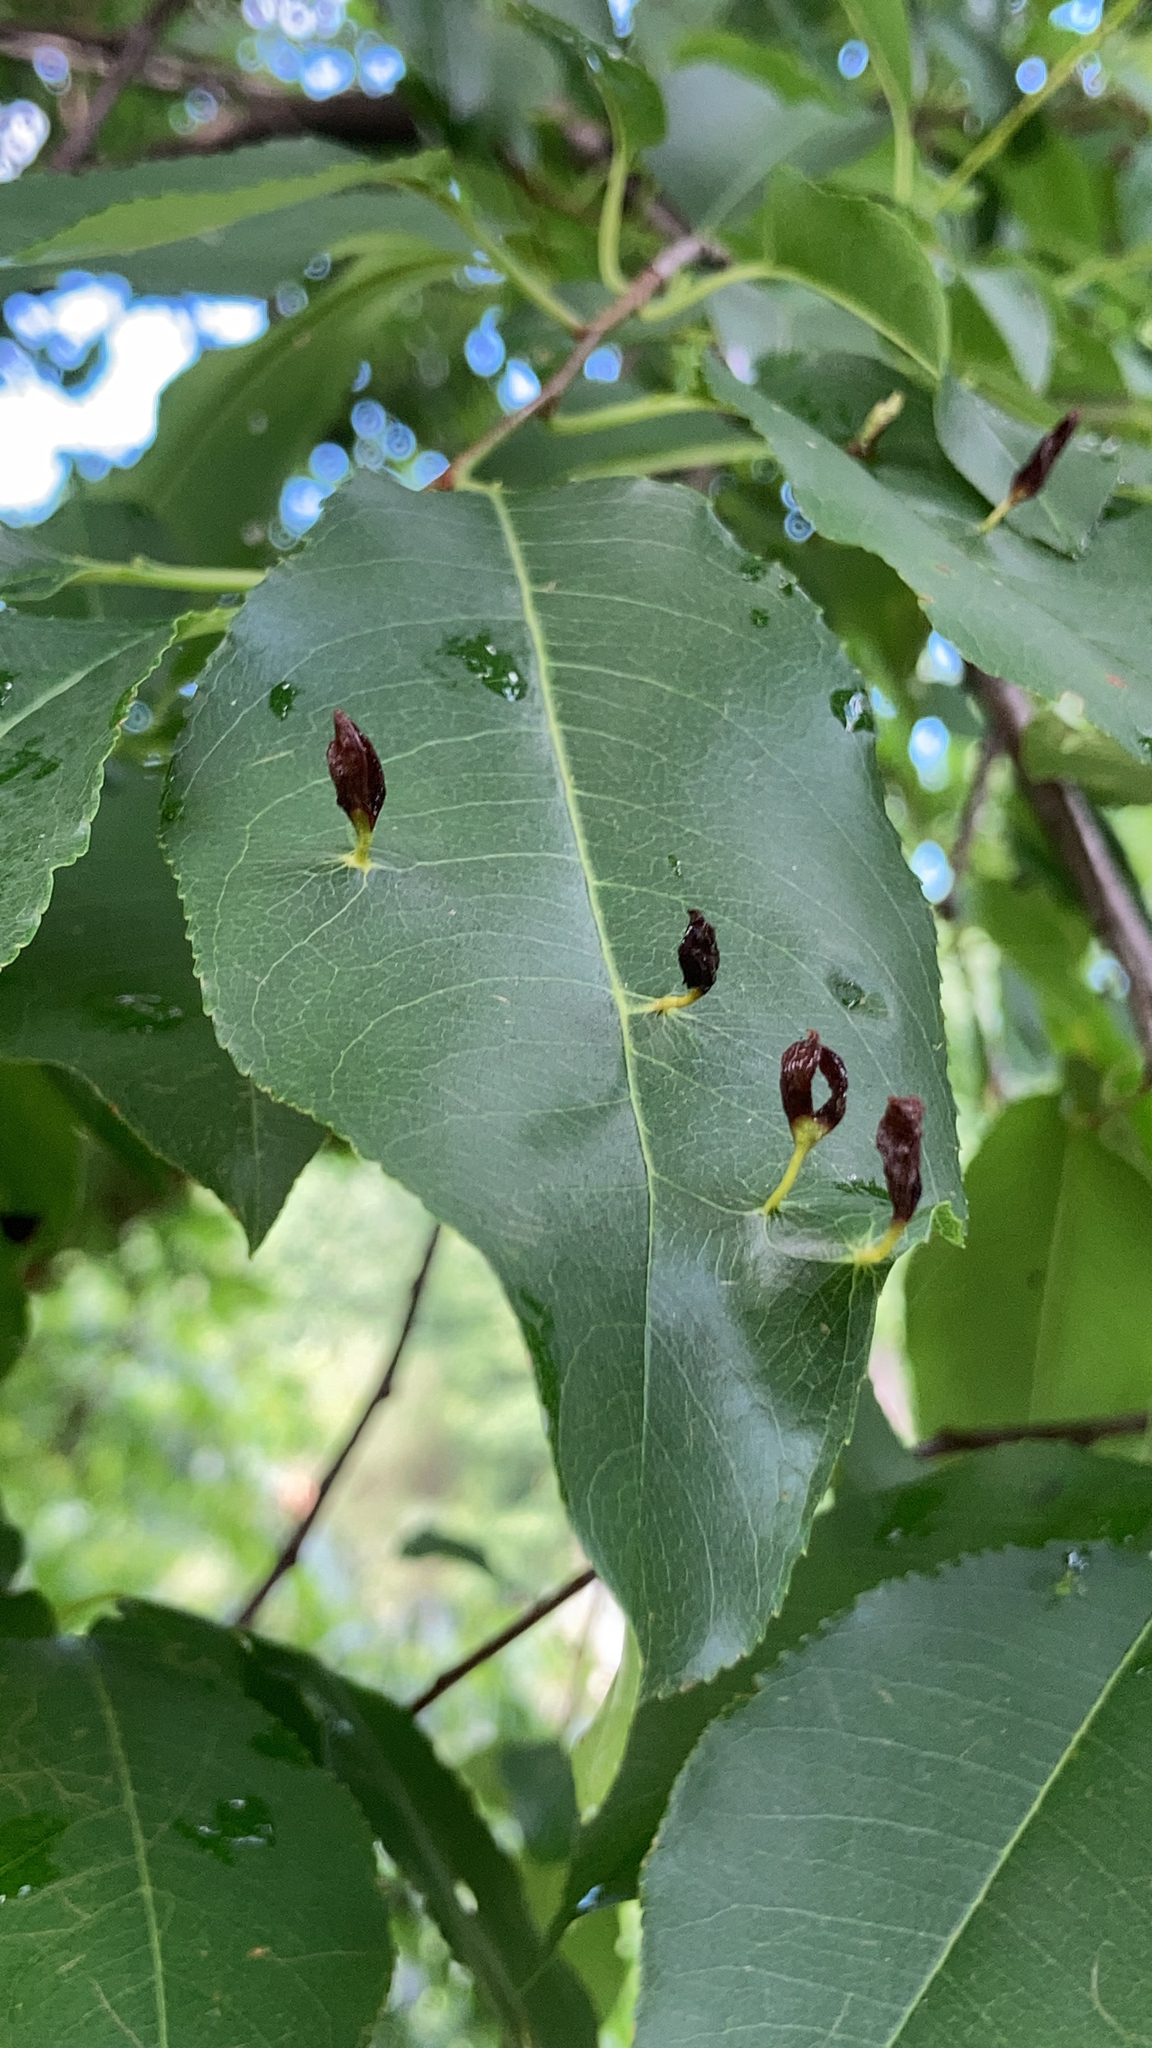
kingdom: Animalia
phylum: Arthropoda
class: Arachnida
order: Trombidiformes
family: Eriophyidae
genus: Eriophyes
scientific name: Eriophyes
